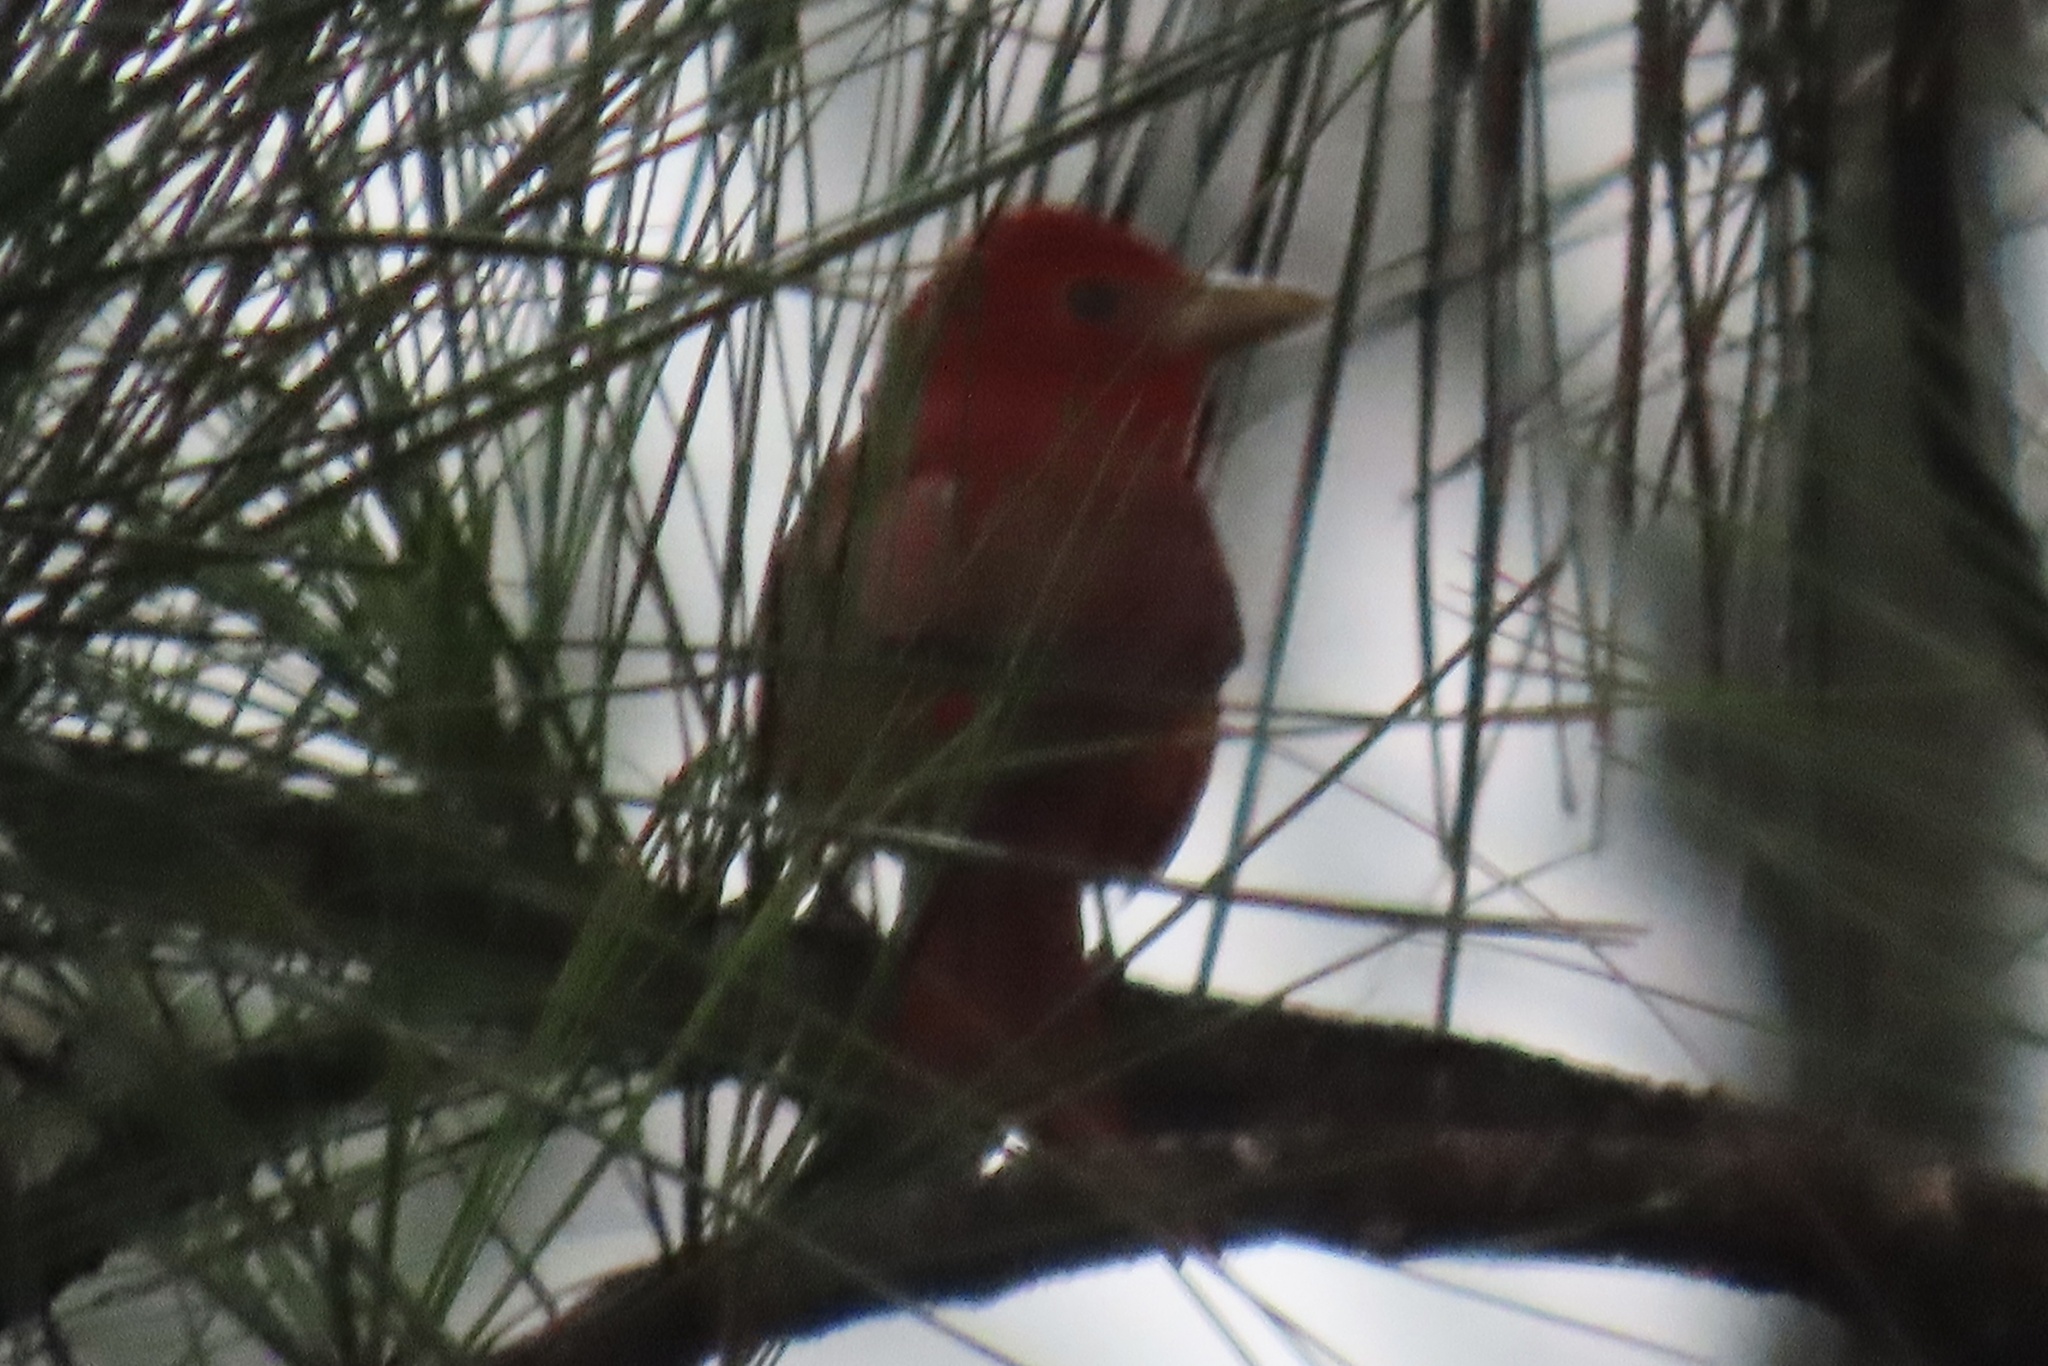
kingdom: Animalia
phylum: Chordata
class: Aves
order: Passeriformes
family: Cardinalidae
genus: Piranga
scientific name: Piranga rubra
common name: Summer tanager
